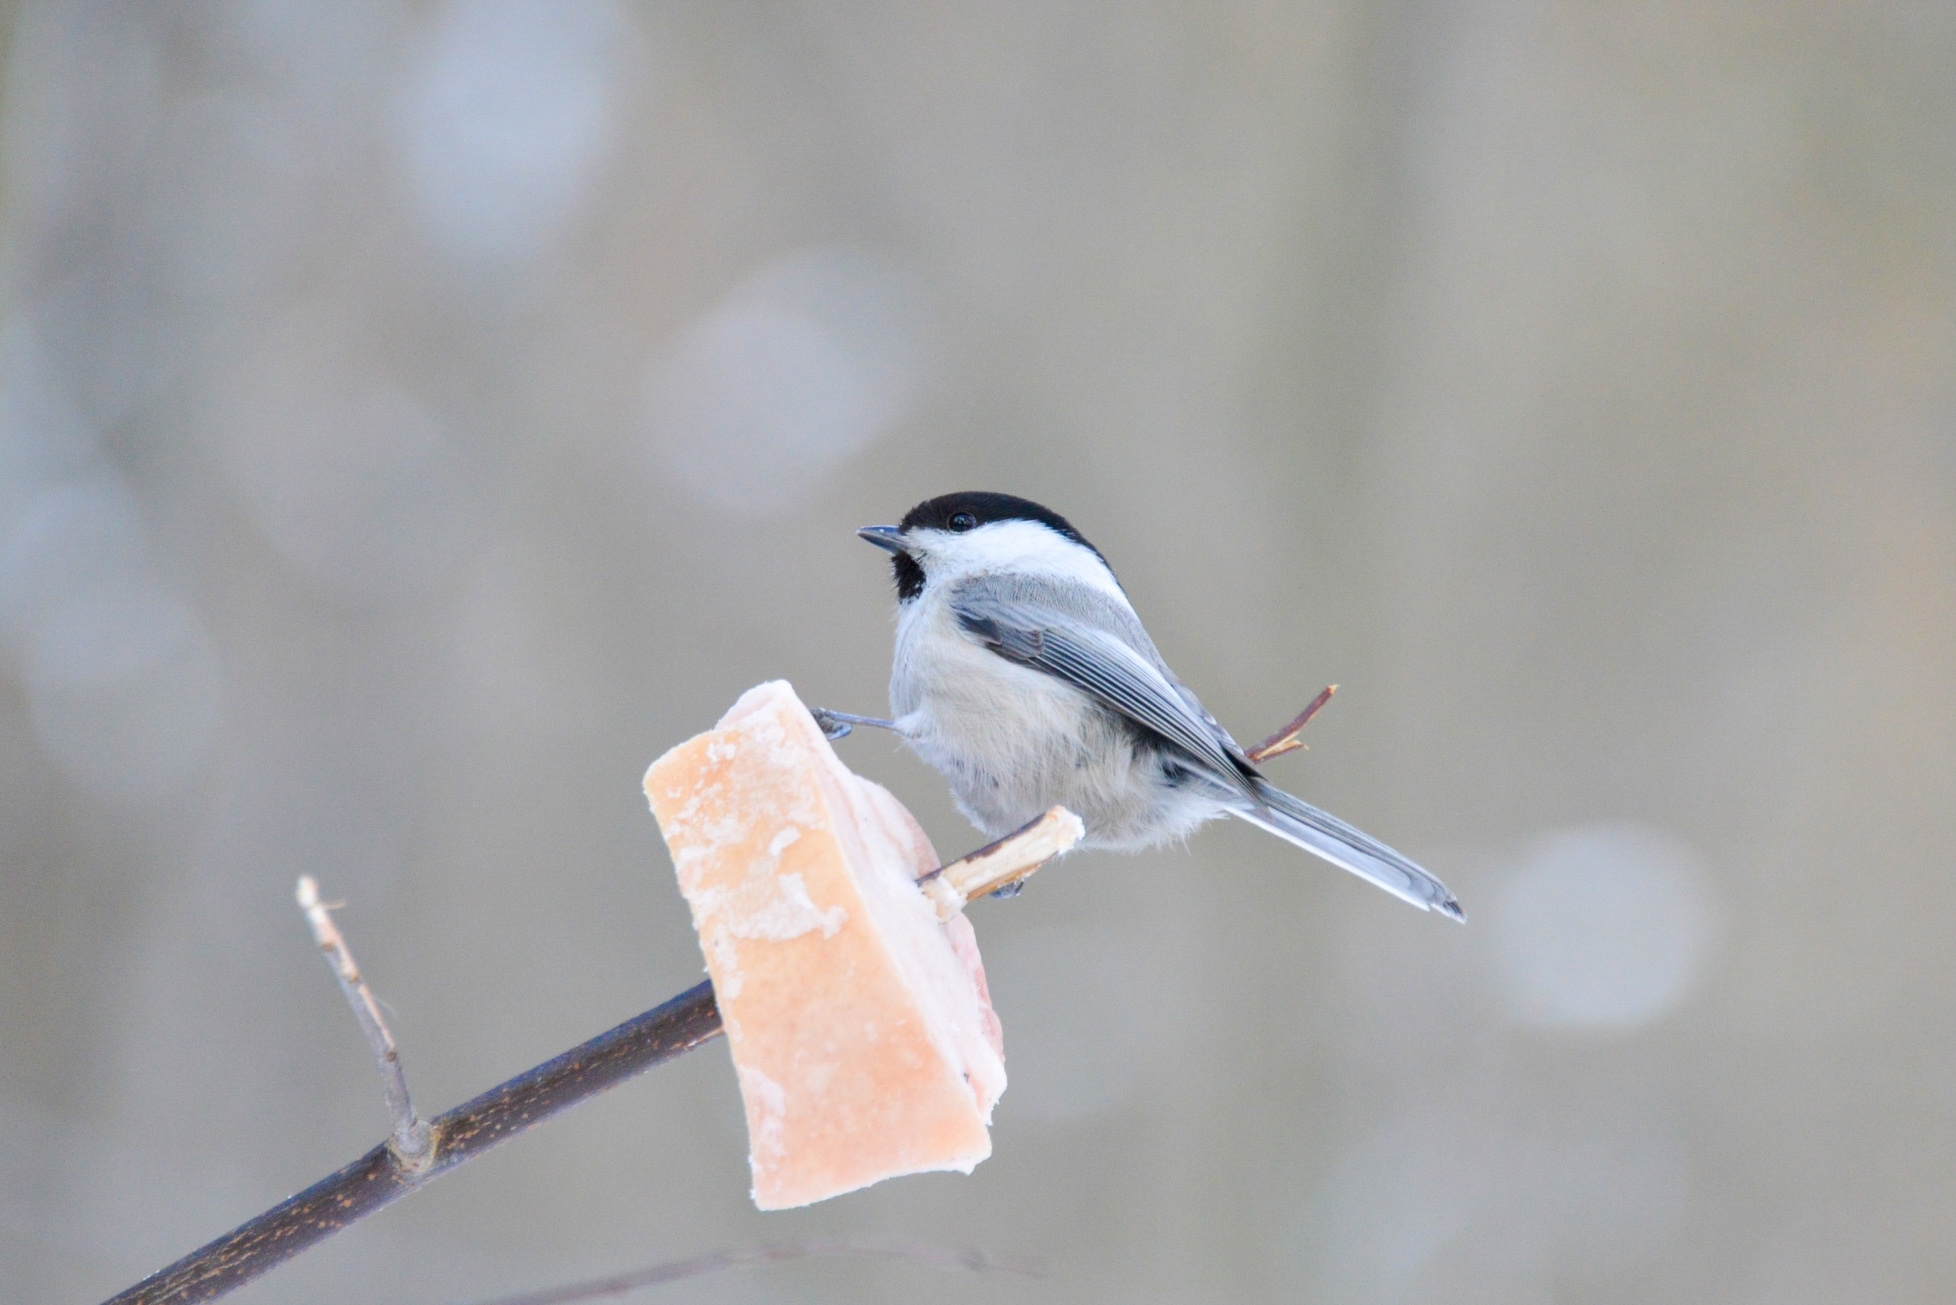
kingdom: Animalia
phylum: Chordata
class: Aves
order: Passeriformes
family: Paridae
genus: Poecile
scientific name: Poecile montanus
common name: Willow tit
